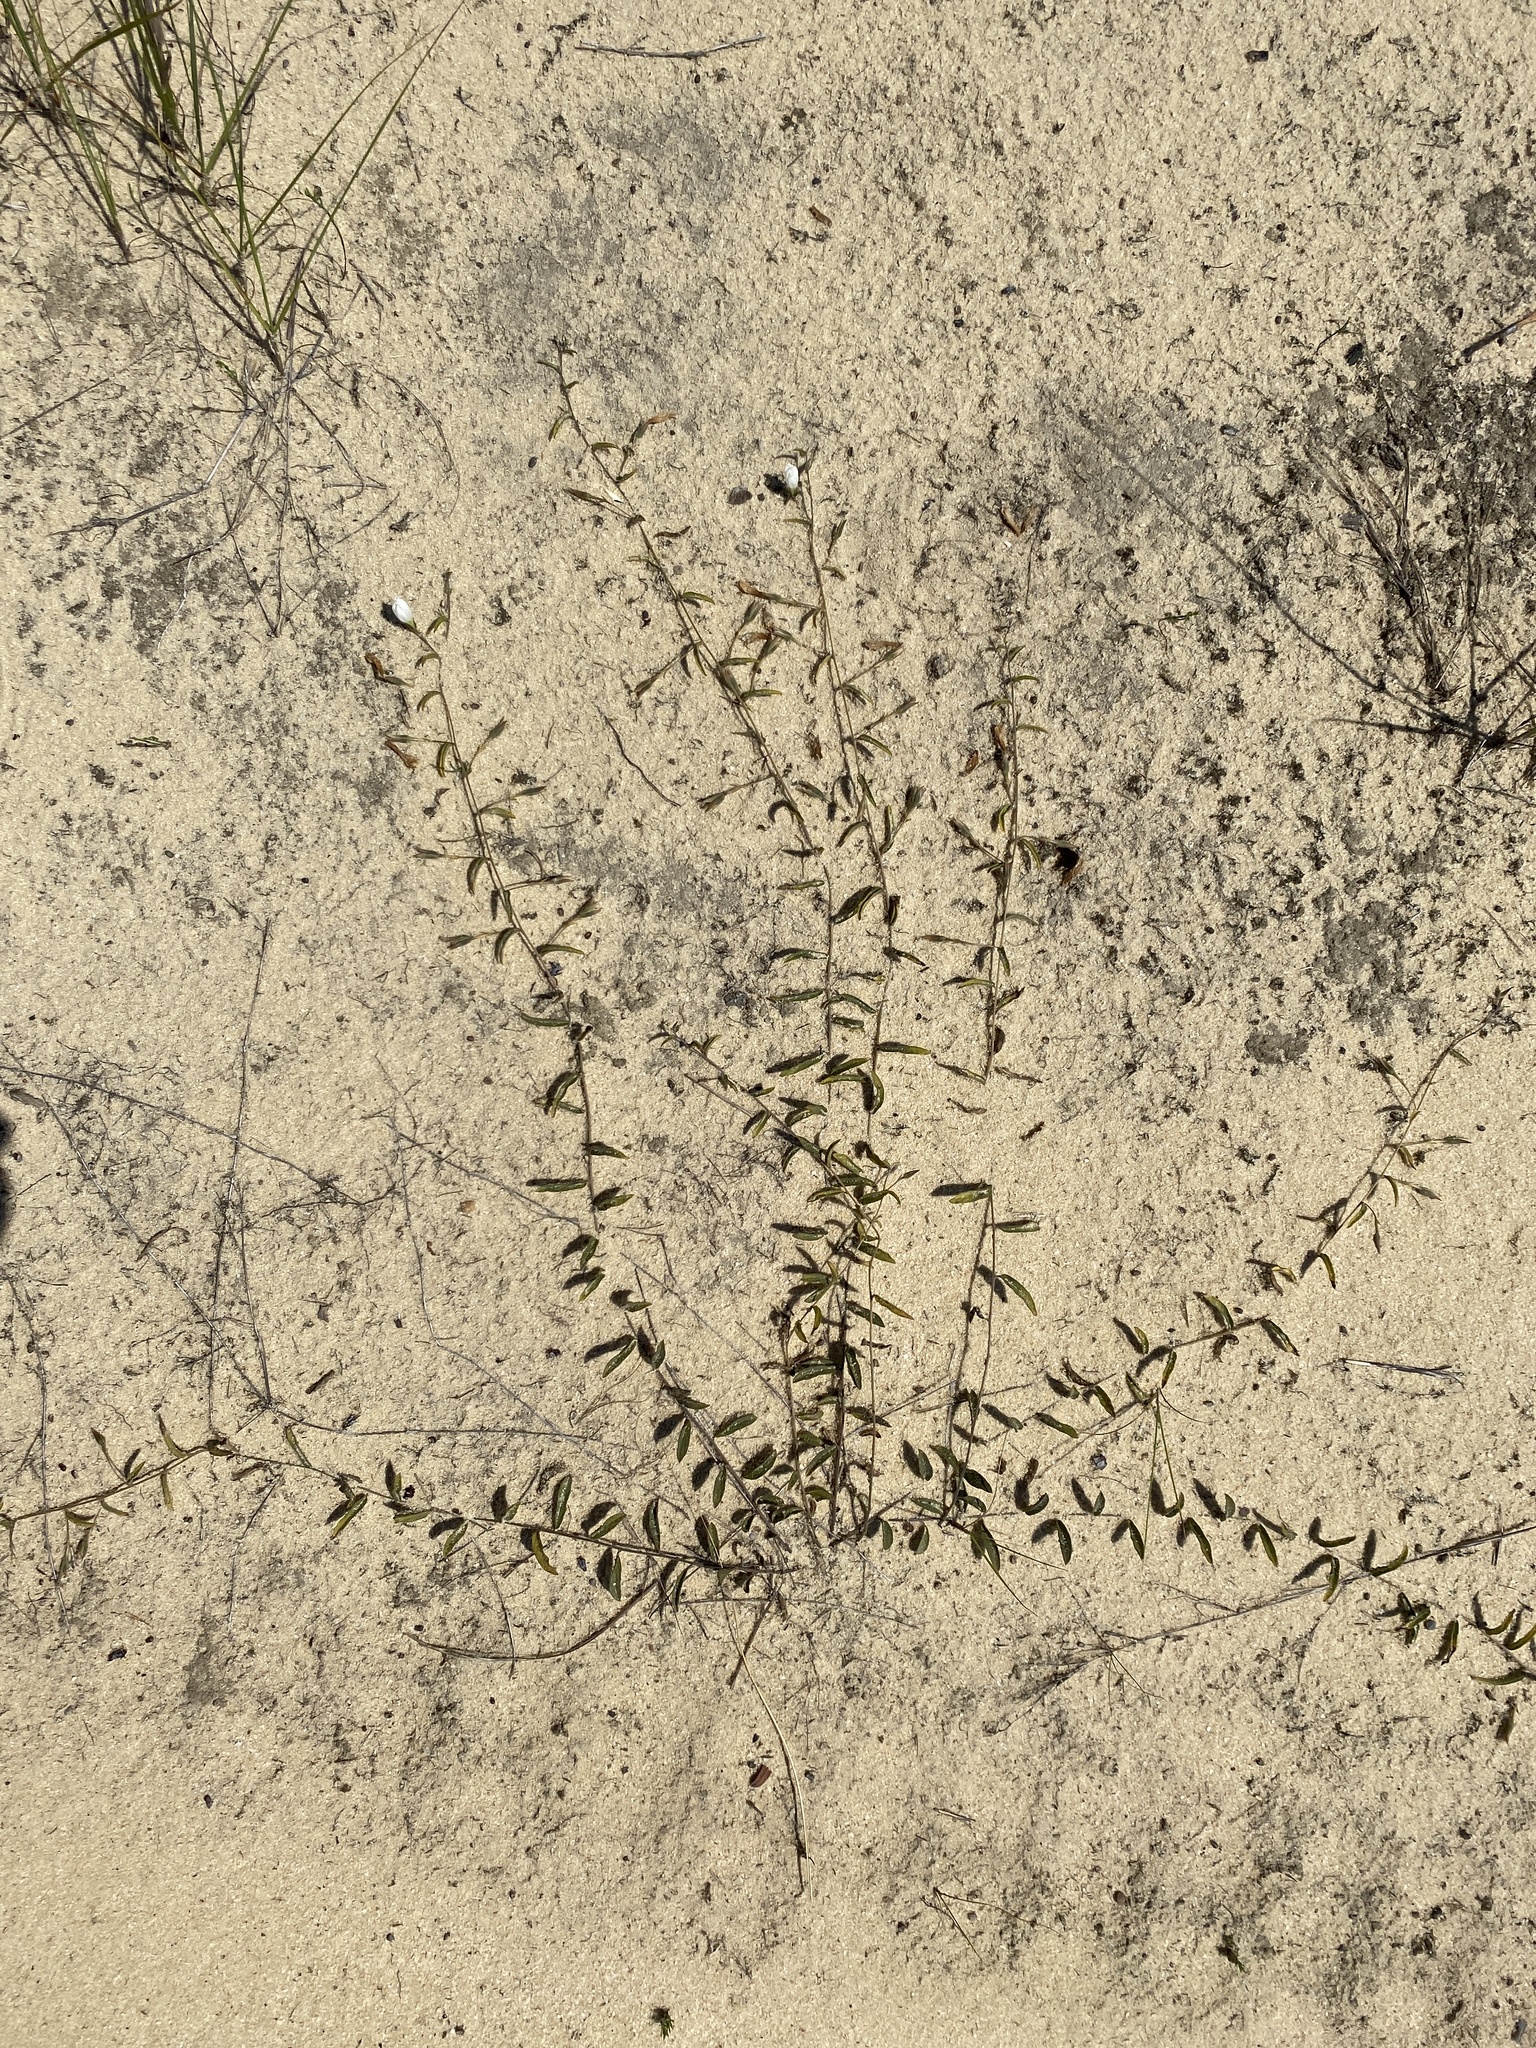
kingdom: Plantae
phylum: Tracheophyta
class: Magnoliopsida
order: Solanales
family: Convolvulaceae
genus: Stylisma
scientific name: Stylisma patens
